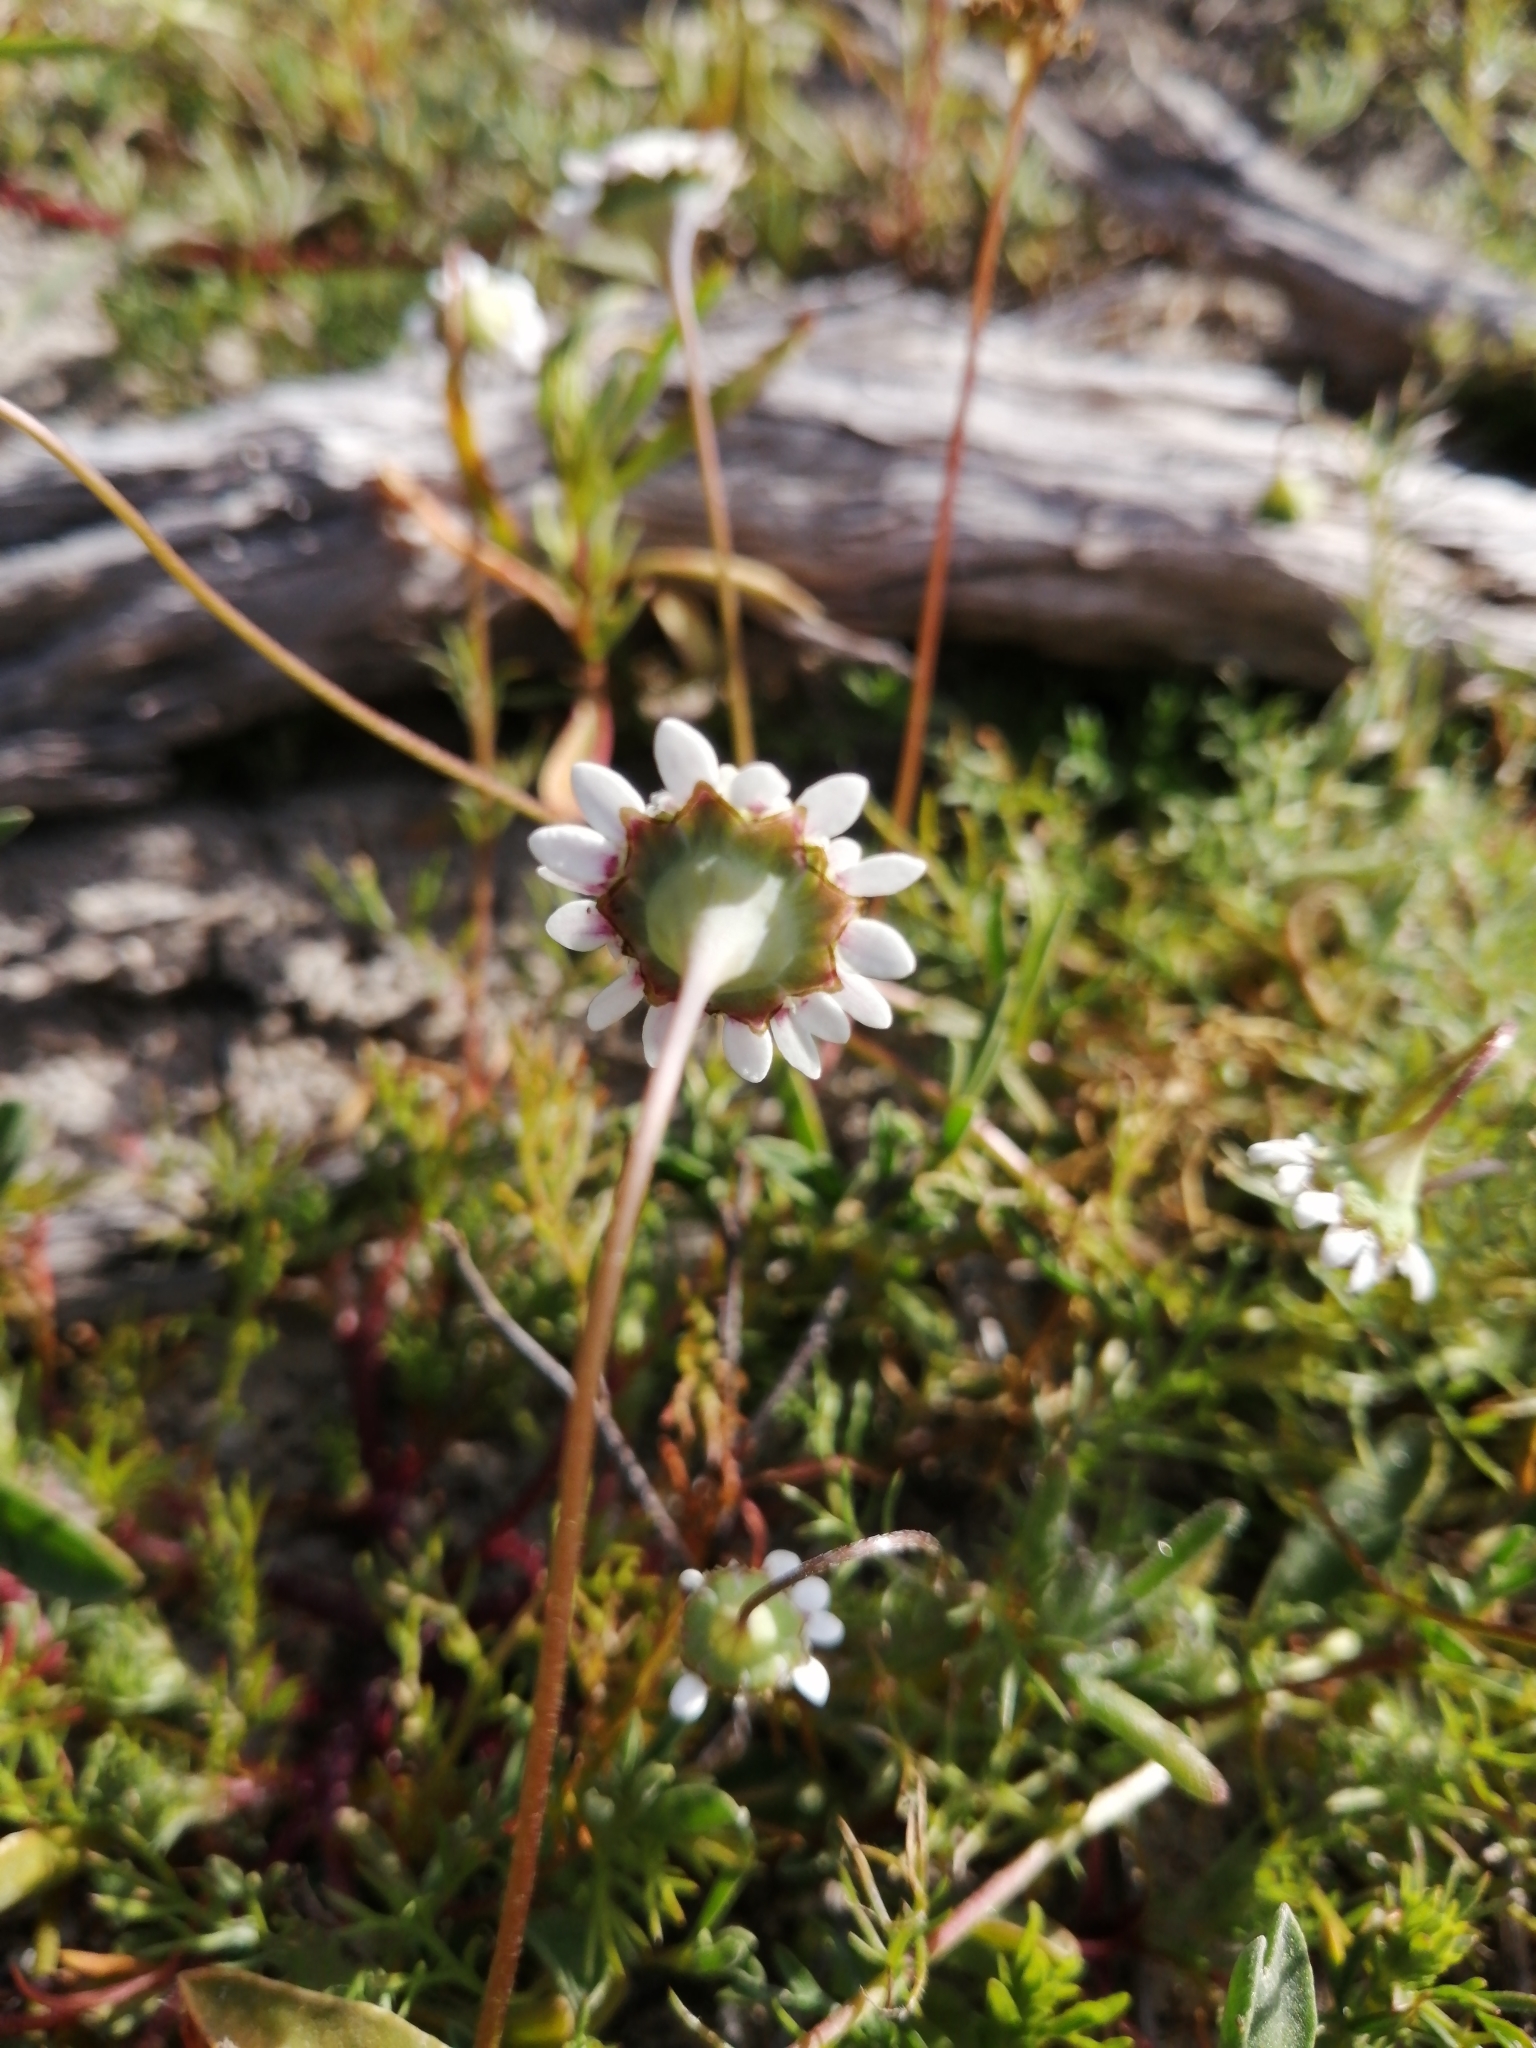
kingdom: Plantae
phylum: Tracheophyta
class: Magnoliopsida
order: Asterales
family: Asteraceae
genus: Cotula
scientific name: Cotula turbinata
